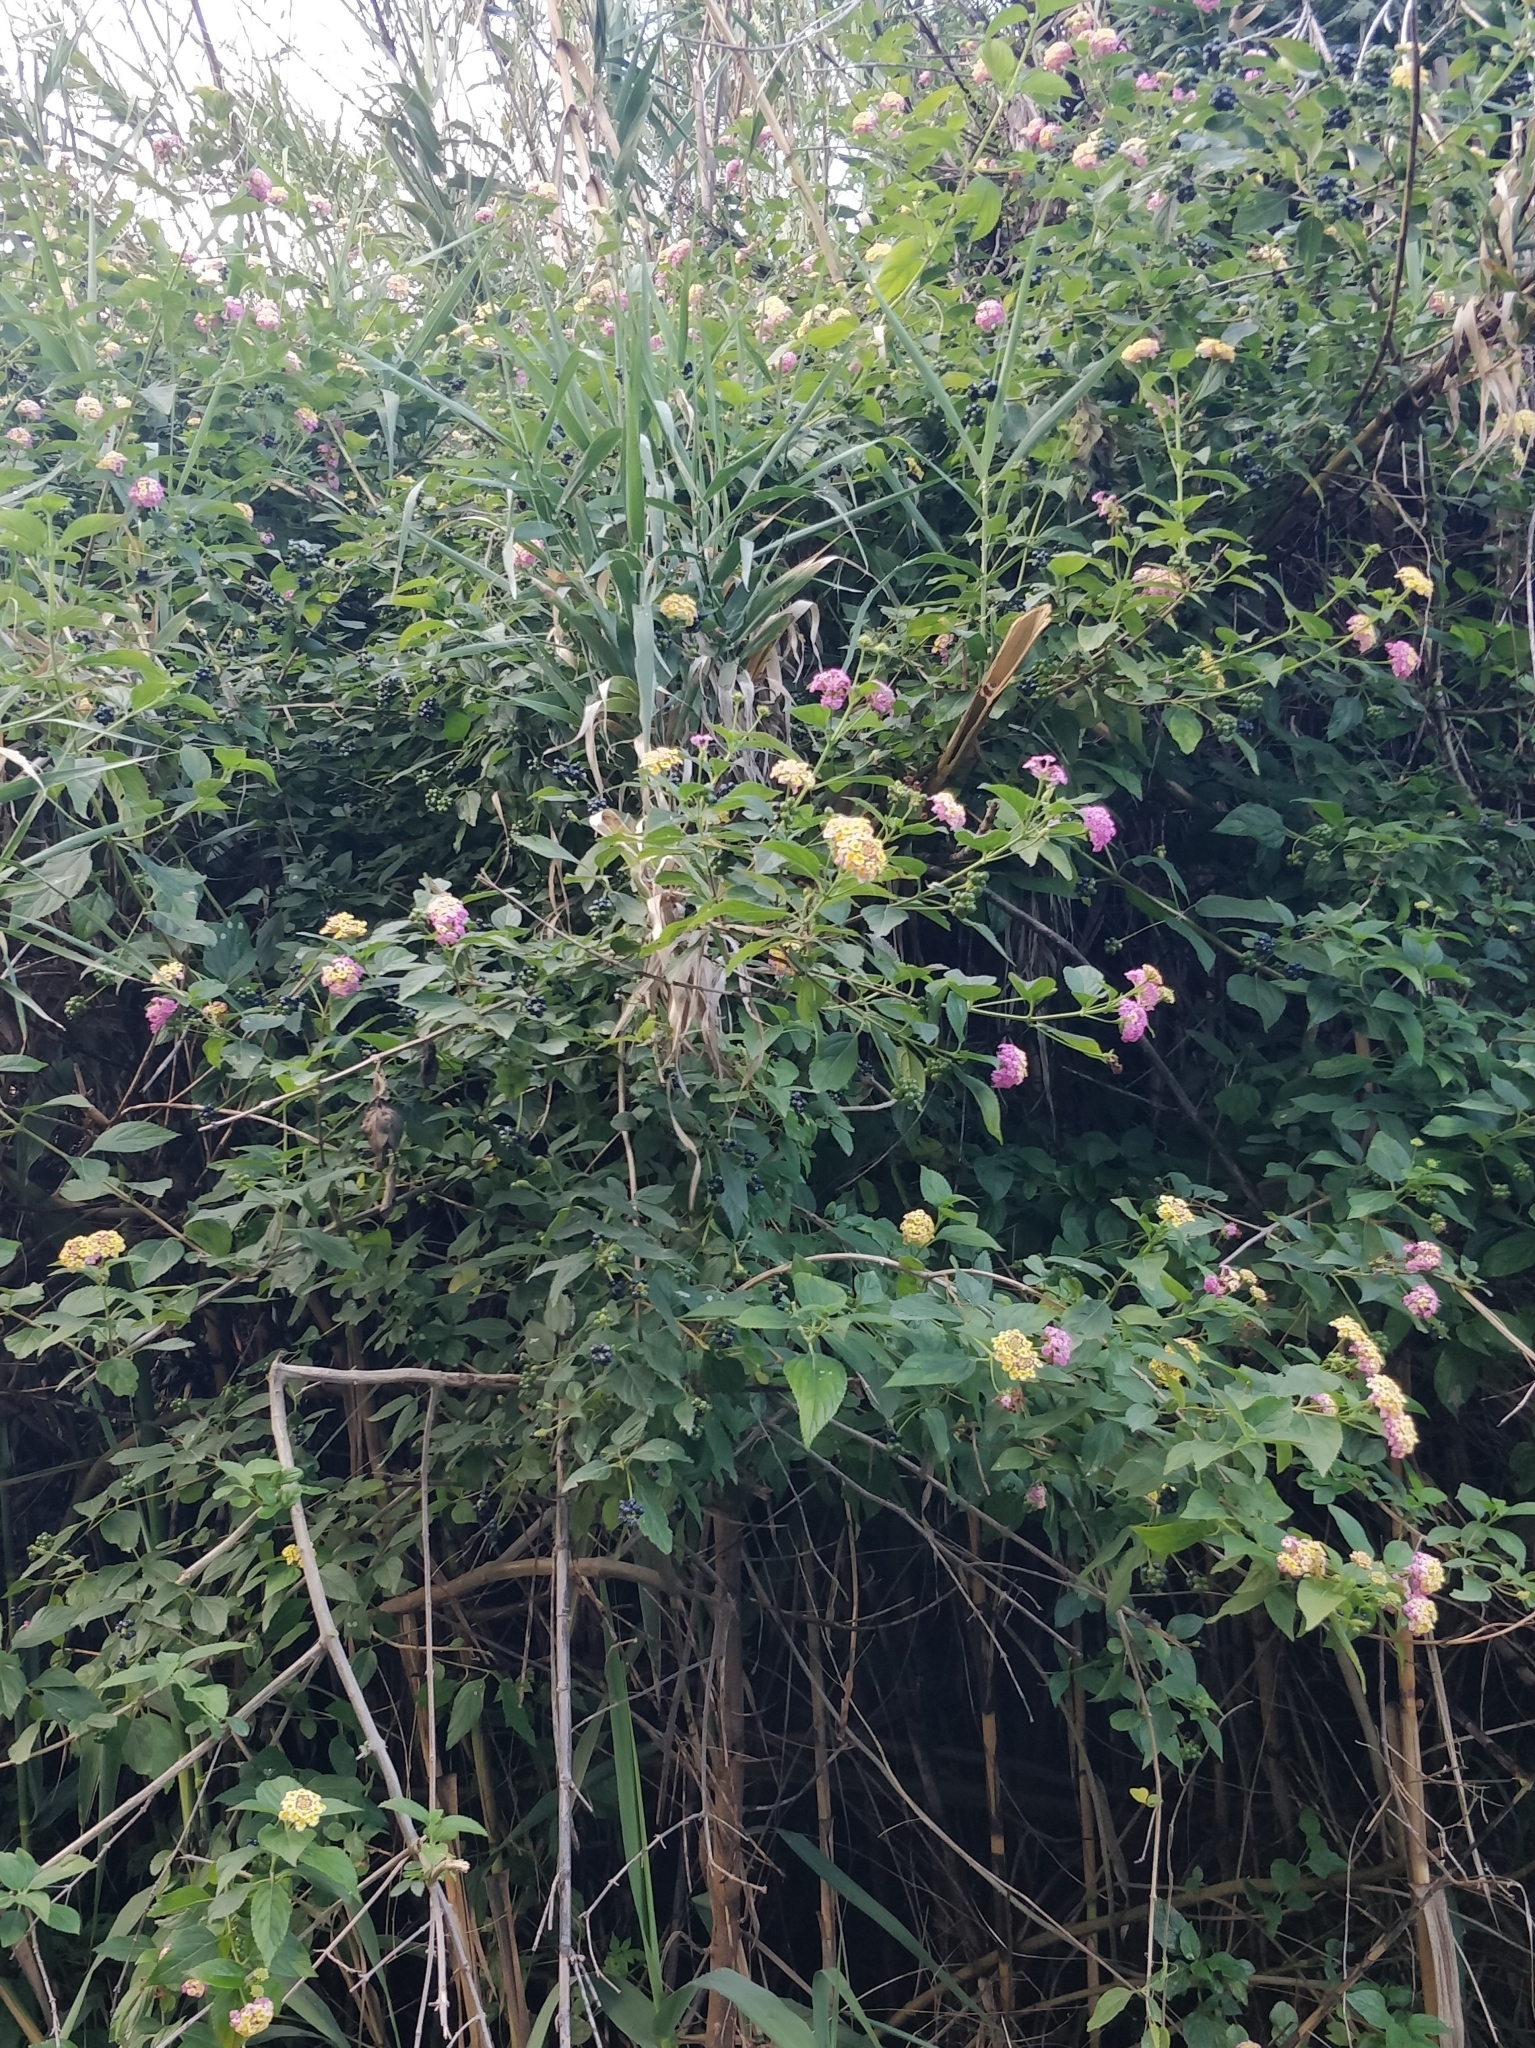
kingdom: Plantae
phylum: Tracheophyta
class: Magnoliopsida
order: Lamiales
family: Verbenaceae
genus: Lantana
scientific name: Lantana camara
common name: Lantana
